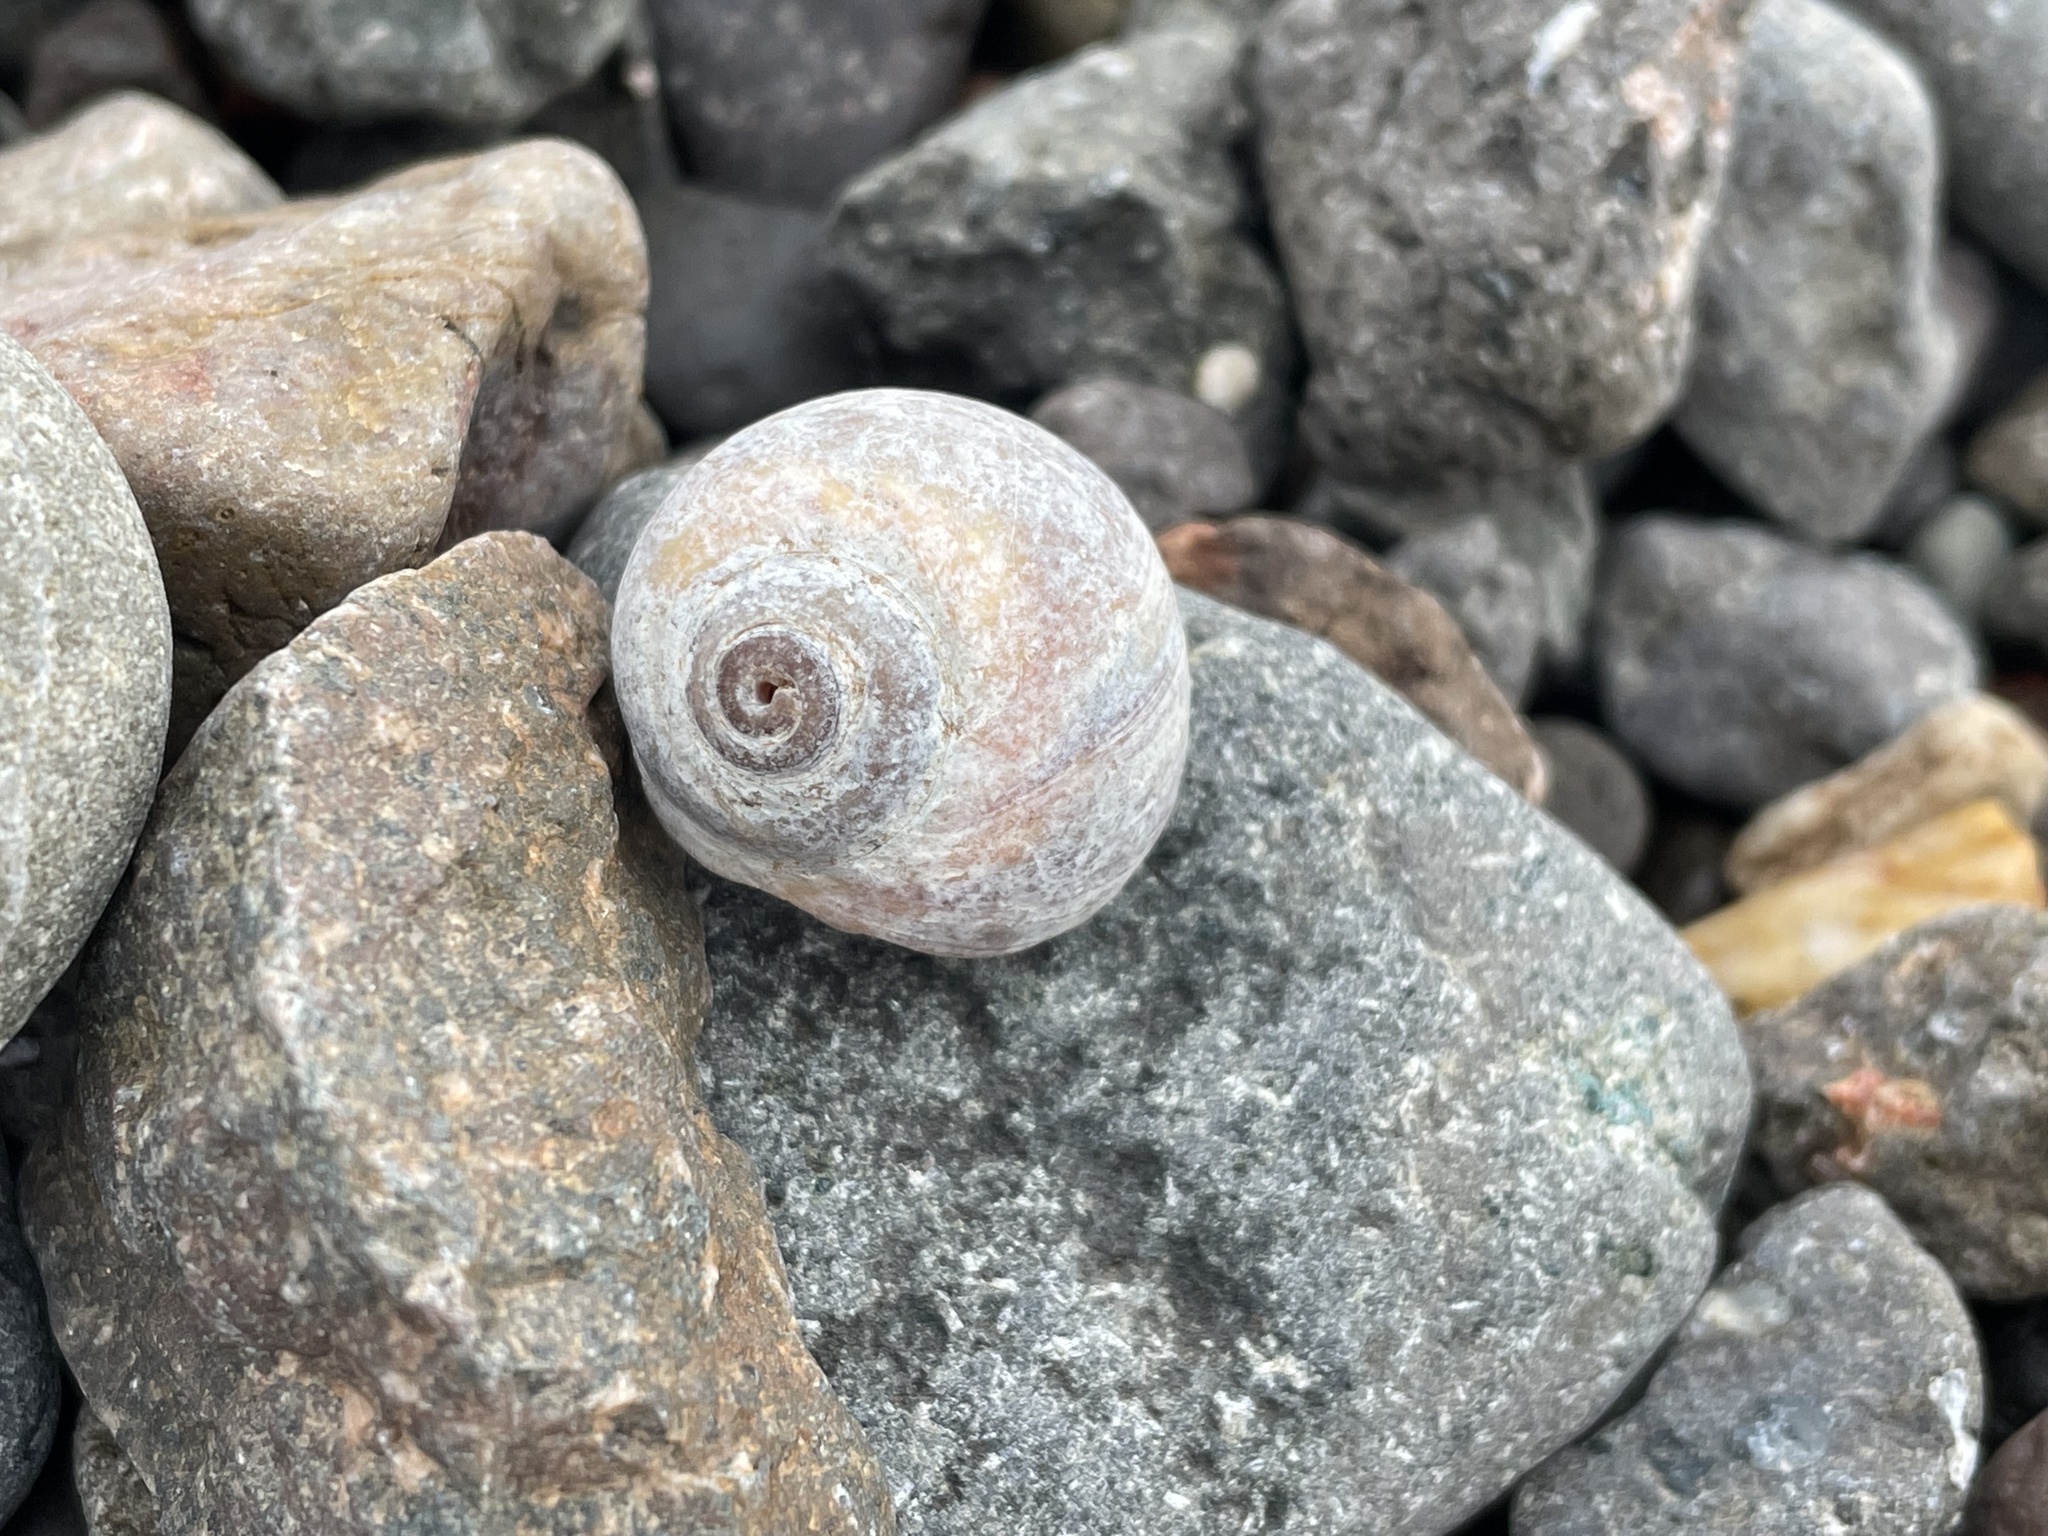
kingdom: Animalia
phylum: Mollusca
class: Gastropoda
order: Littorinimorpha
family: Naticidae
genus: Euspira
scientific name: Euspira heros
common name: Common northern moonsnail
